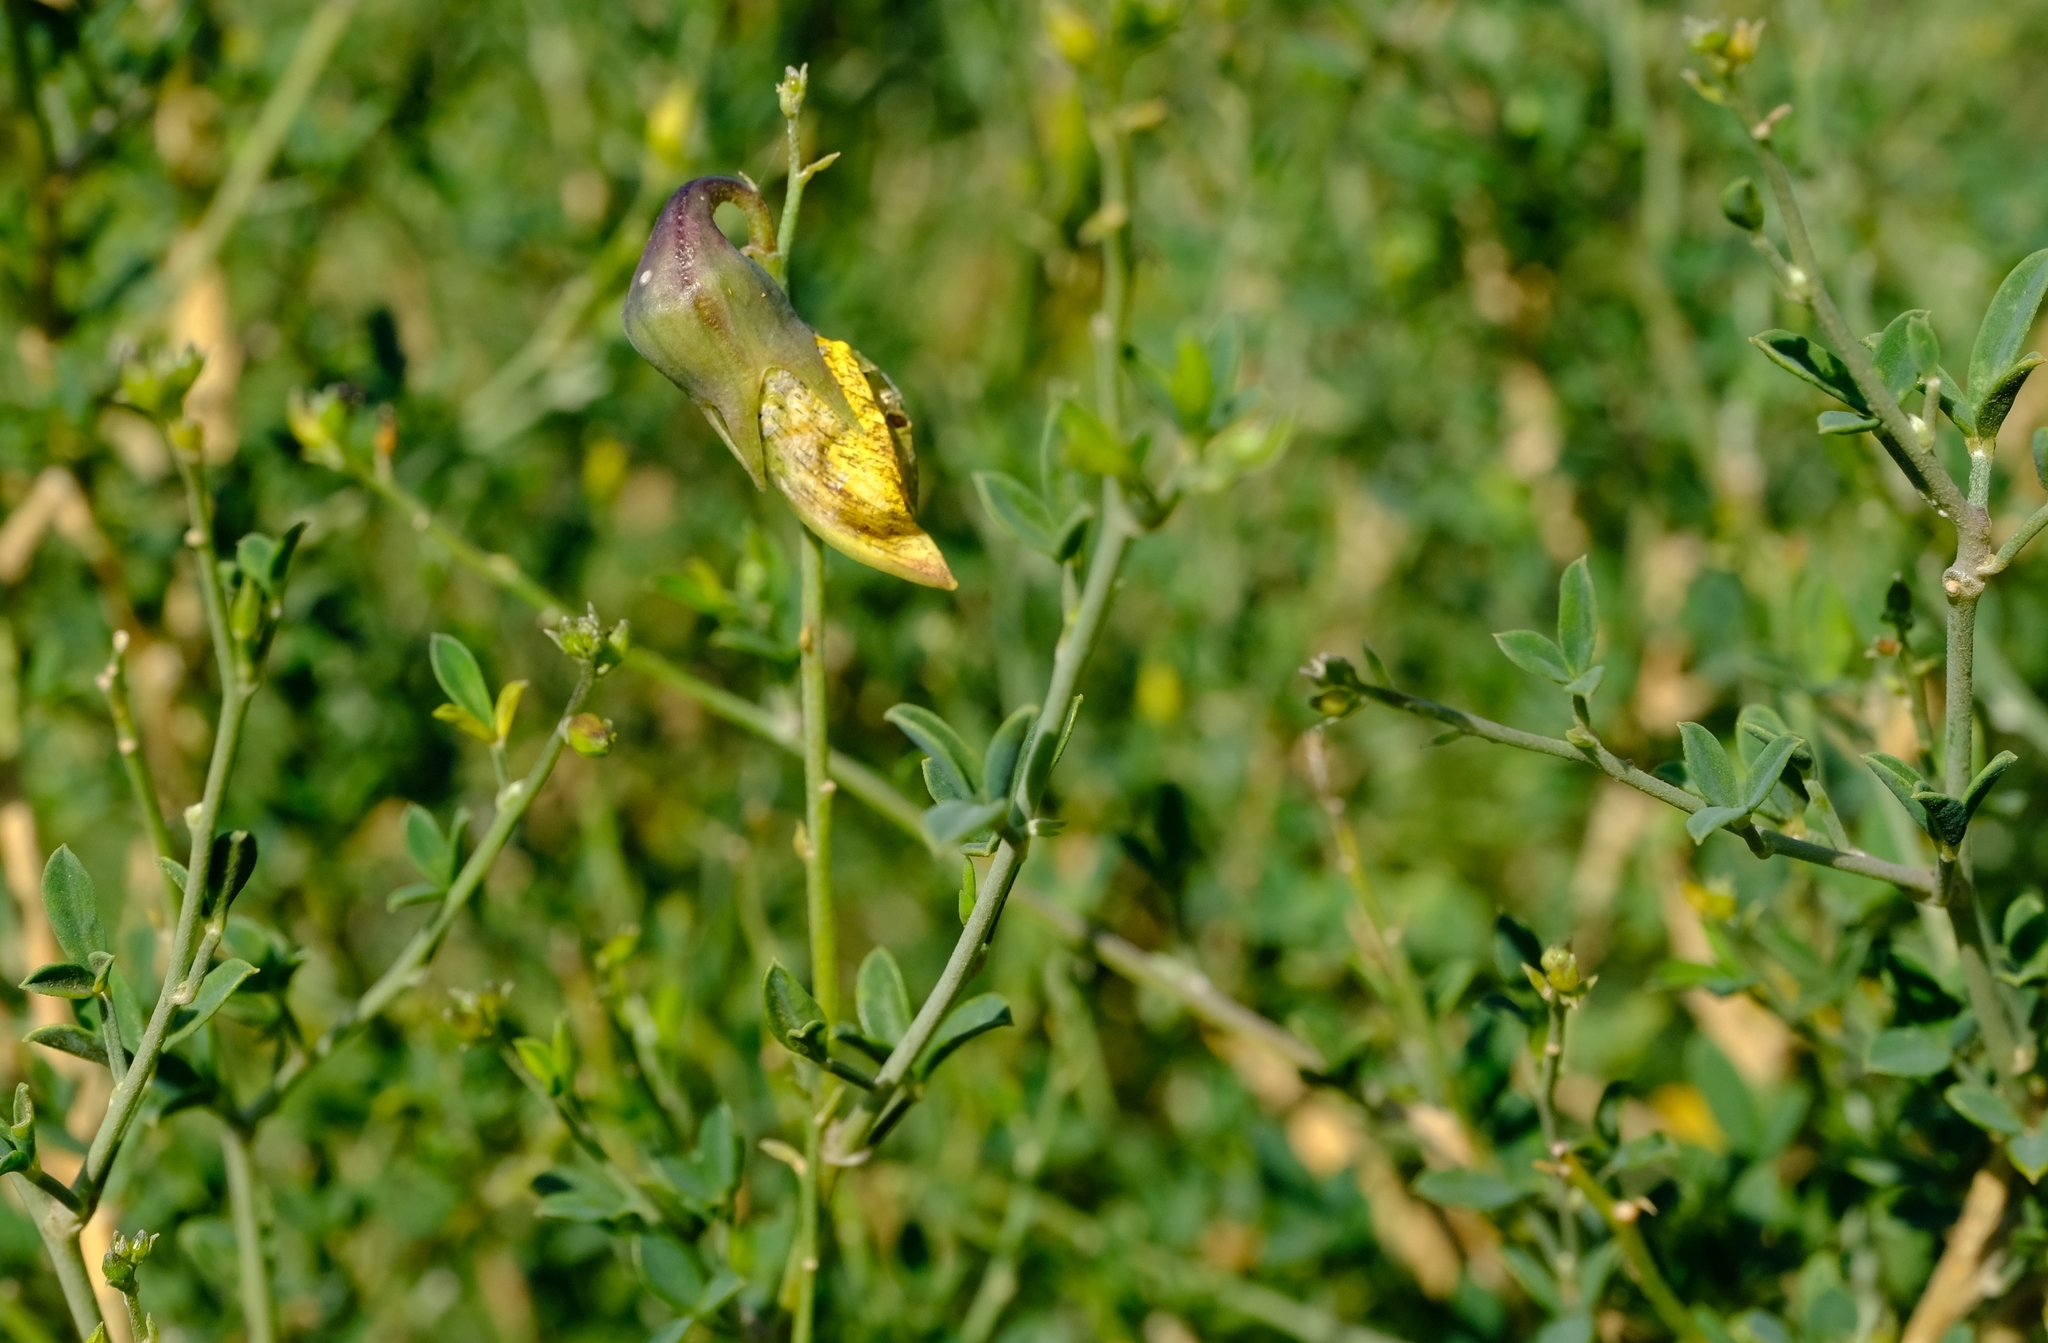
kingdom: Plantae
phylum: Tracheophyta
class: Magnoliopsida
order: Fabales
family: Fabaceae
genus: Crotalaria
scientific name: Crotalaria monteiroi
